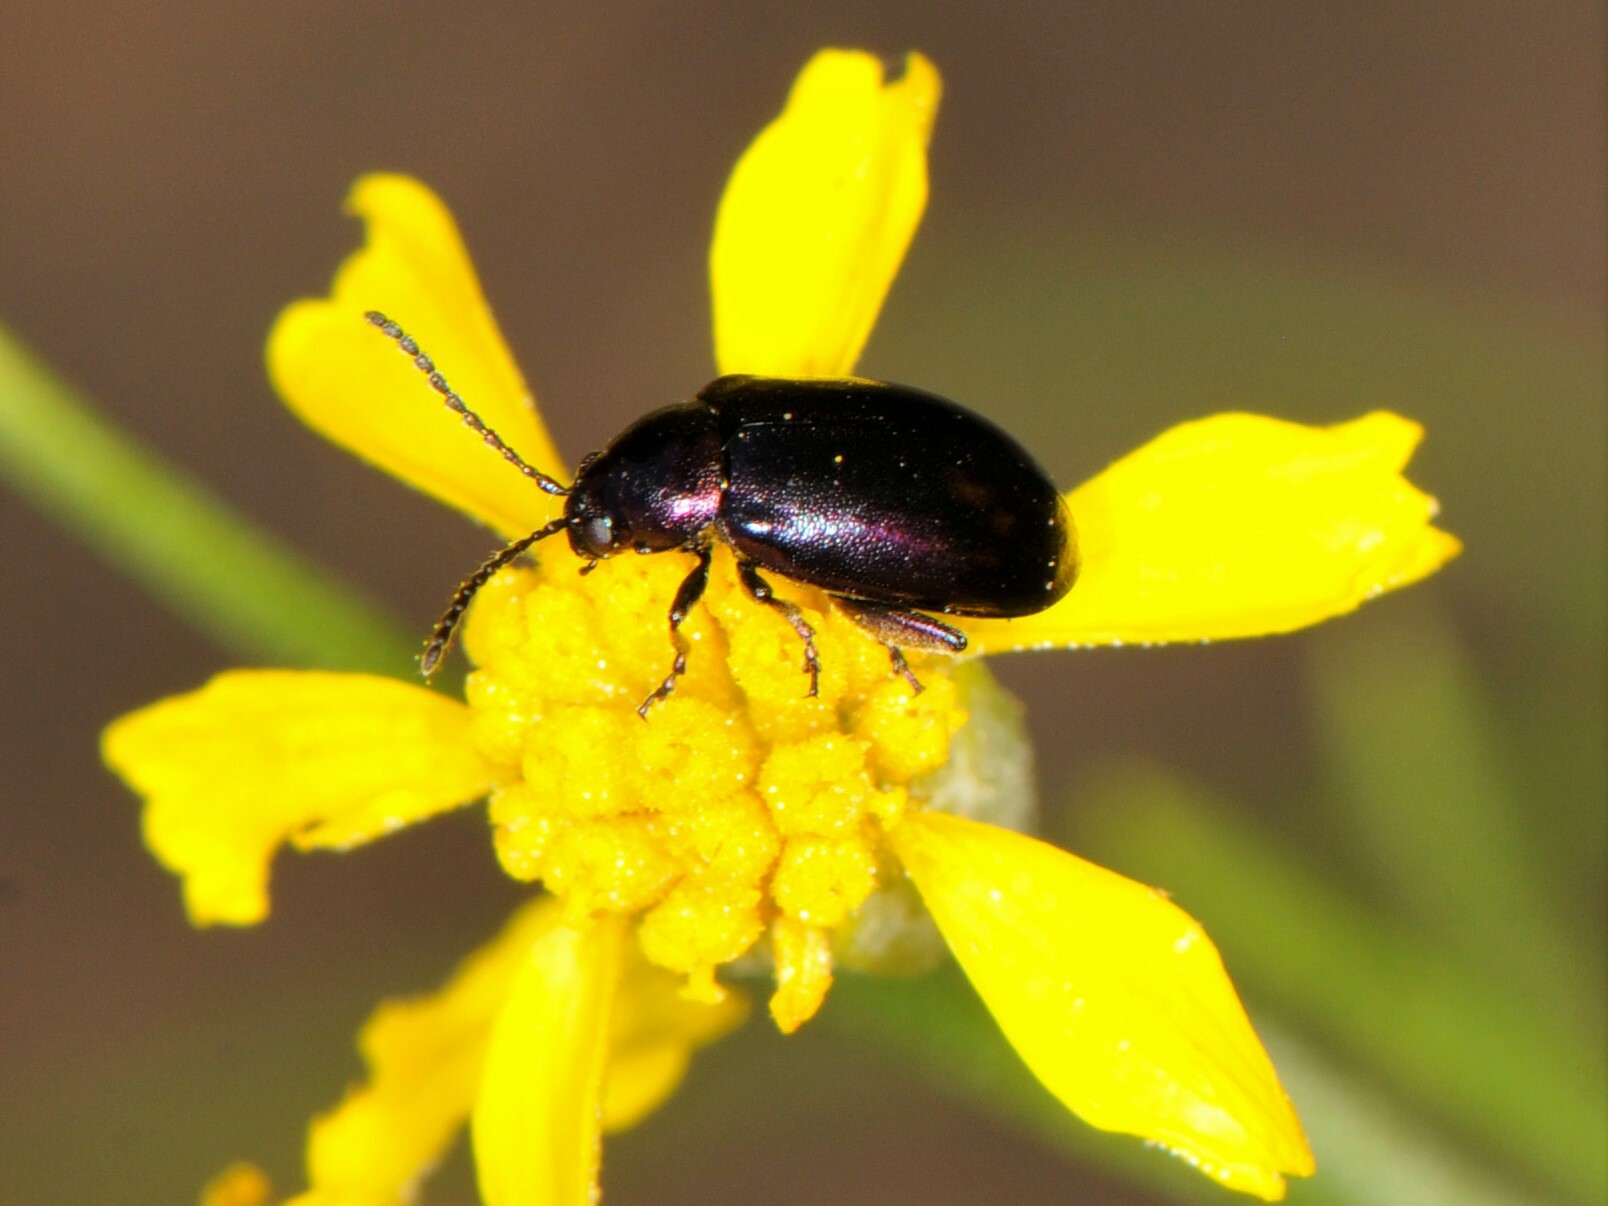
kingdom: Animalia
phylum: Arthropoda
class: Insecta
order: Coleoptera
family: Chrysomelidae
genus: Altica
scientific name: Altica torquata
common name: Leaf beetle
